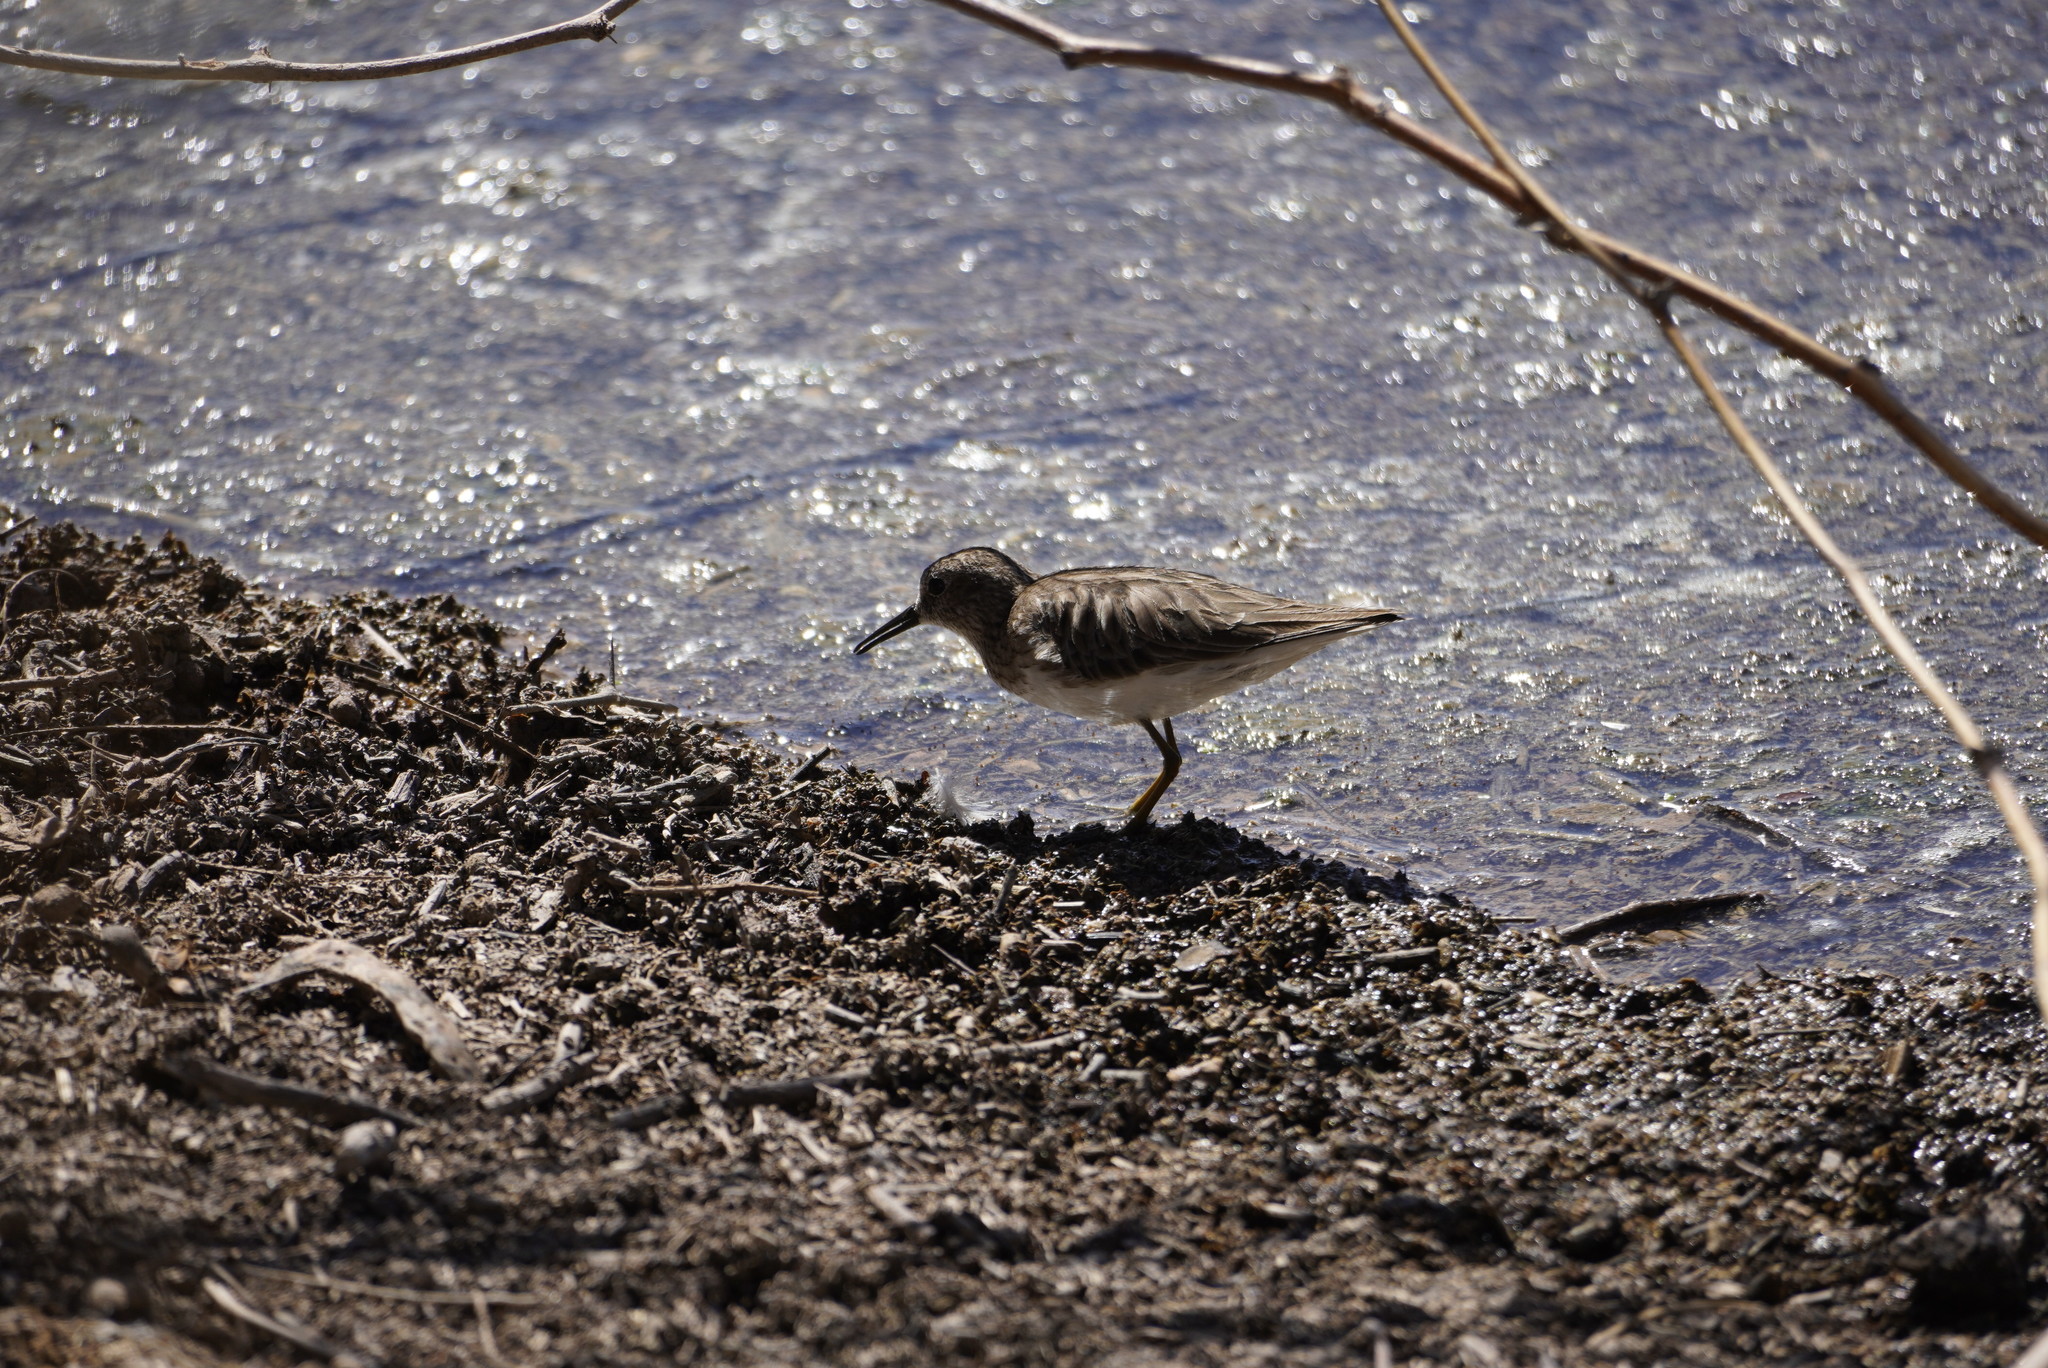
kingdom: Animalia
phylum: Chordata
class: Aves
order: Charadriiformes
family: Scolopacidae
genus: Calidris
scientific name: Calidris minutilla
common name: Least sandpiper
